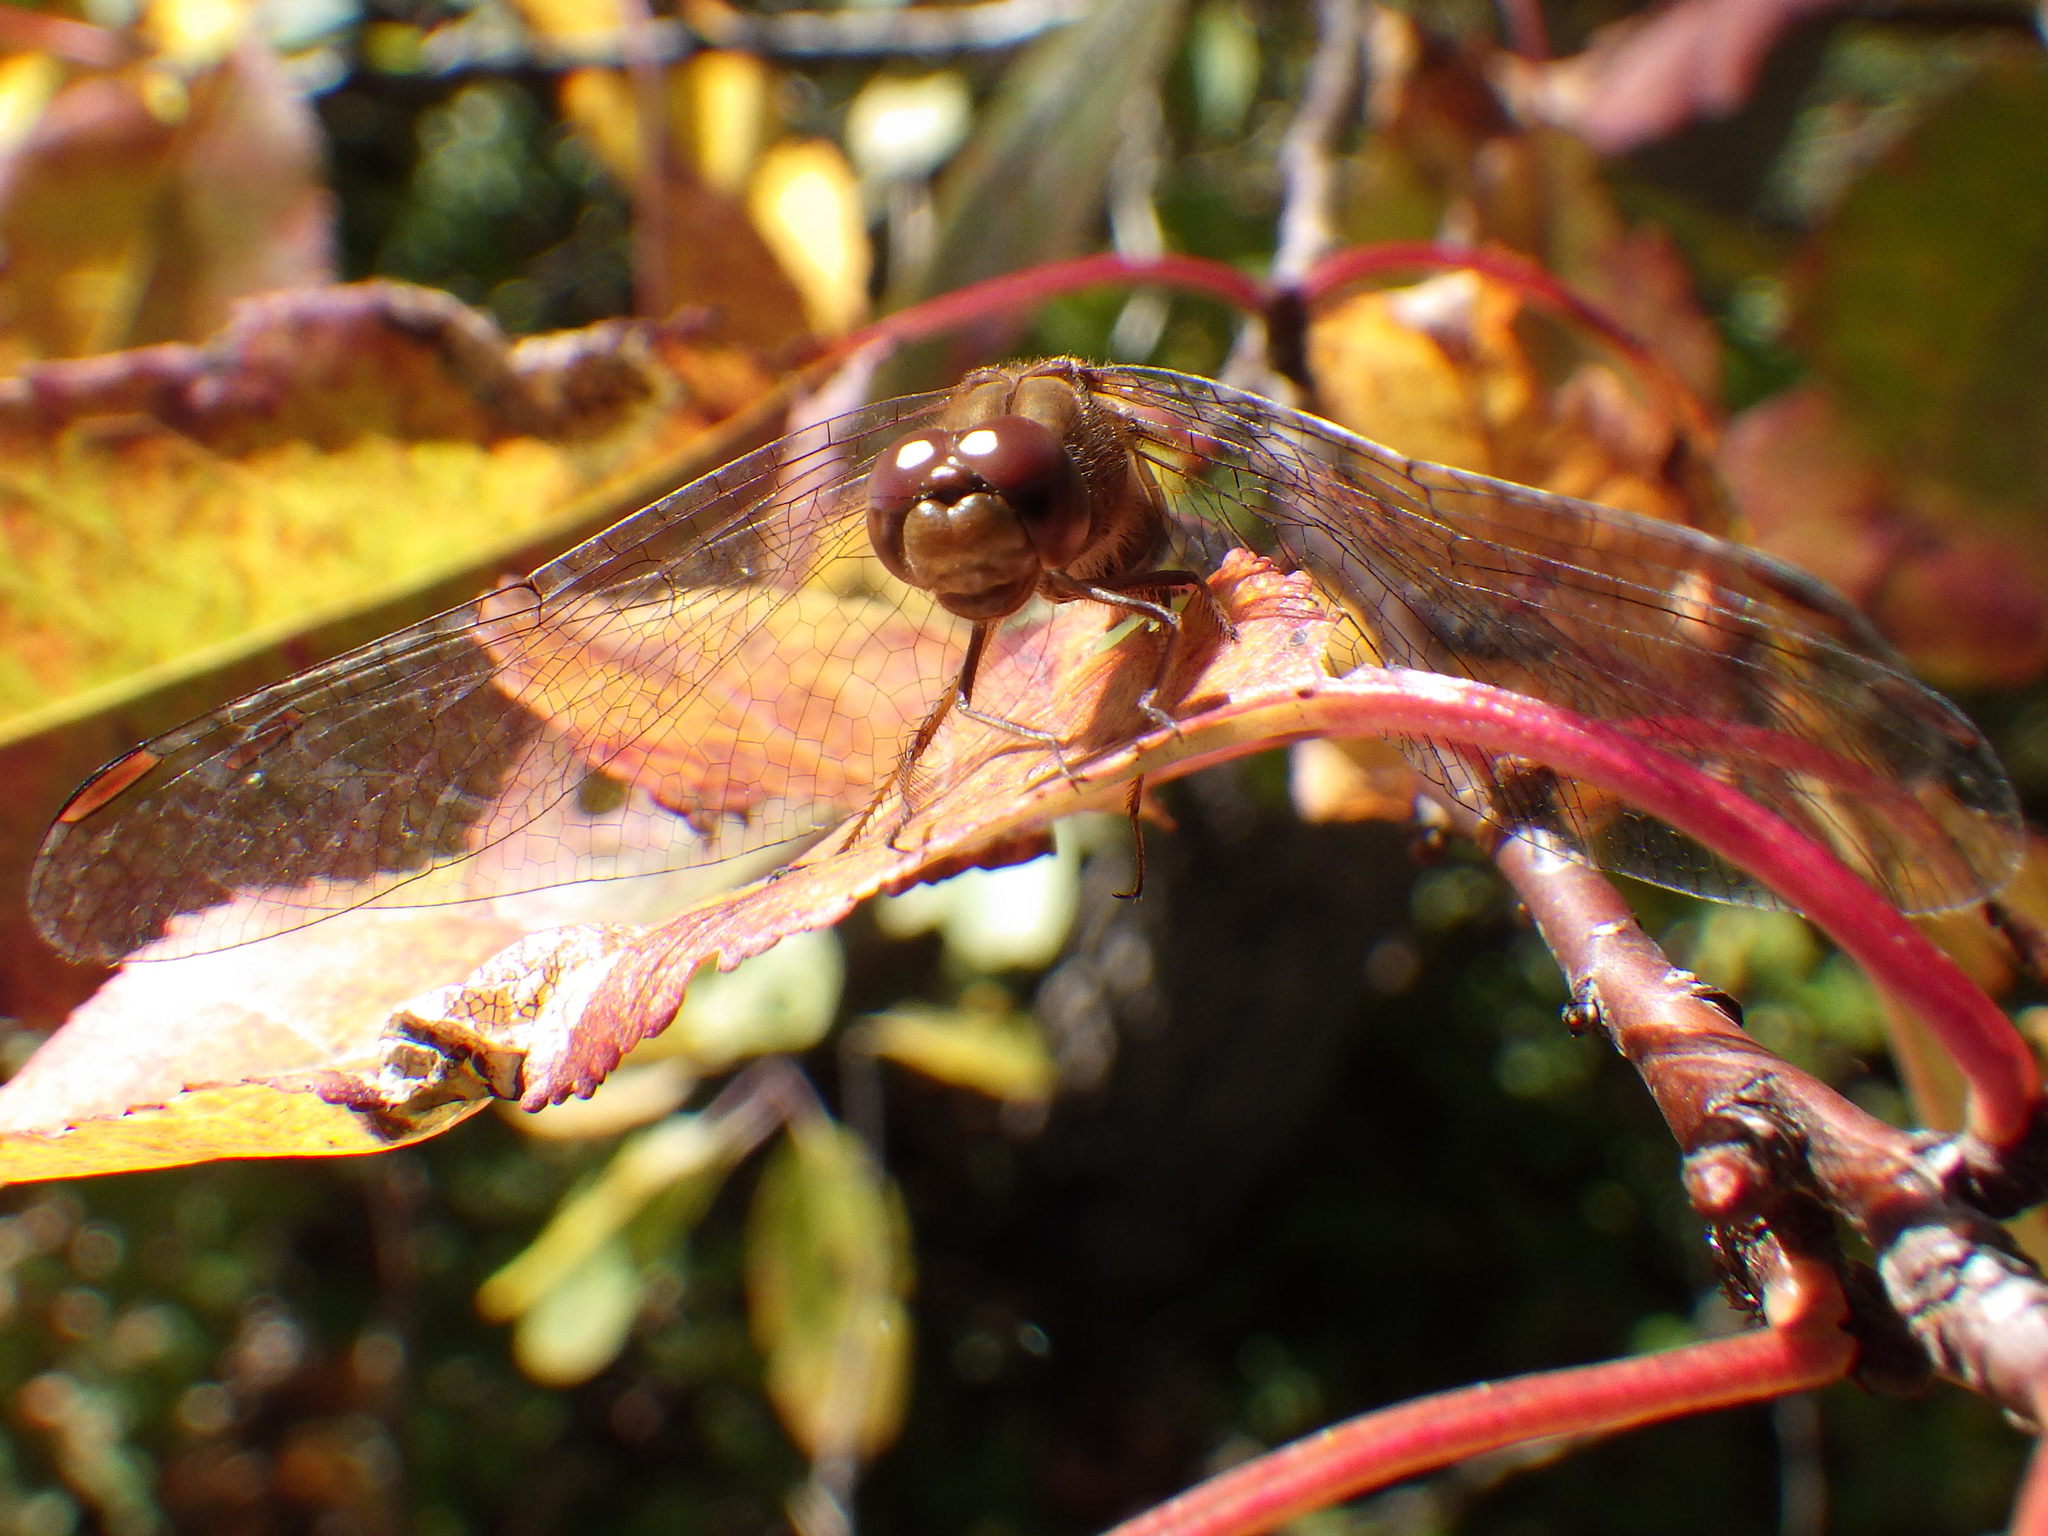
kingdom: Animalia
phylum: Arthropoda
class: Insecta
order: Odonata
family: Libellulidae
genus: Sympetrum
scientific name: Sympetrum vicinum
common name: Autumn meadowhawk
